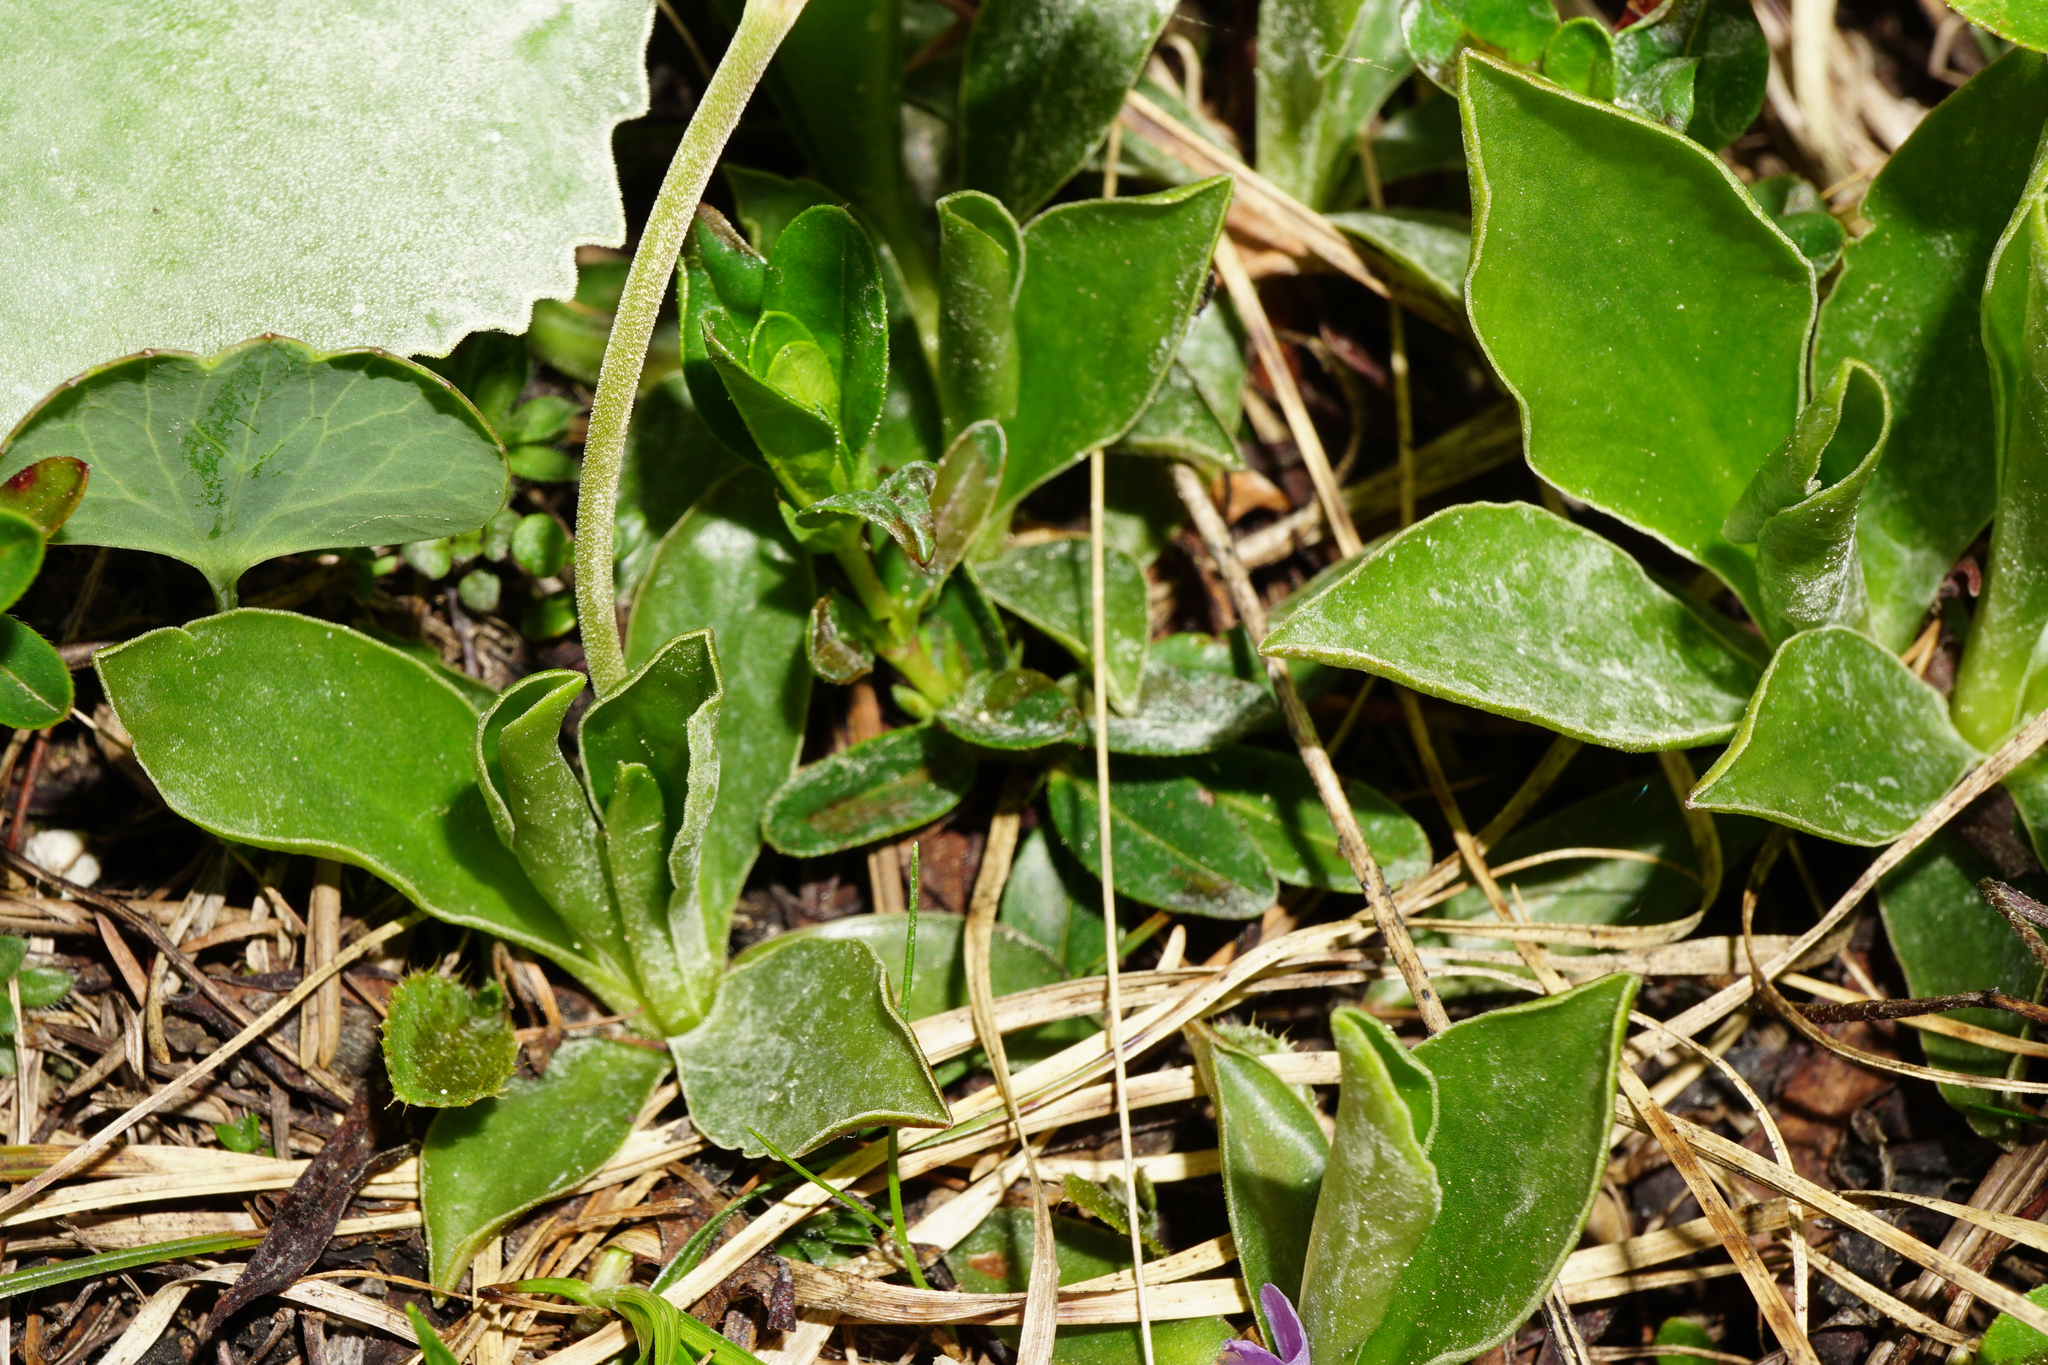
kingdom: Plantae
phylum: Tracheophyta
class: Magnoliopsida
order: Ericales
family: Primulaceae
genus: Primula
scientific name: Primula clusiana
